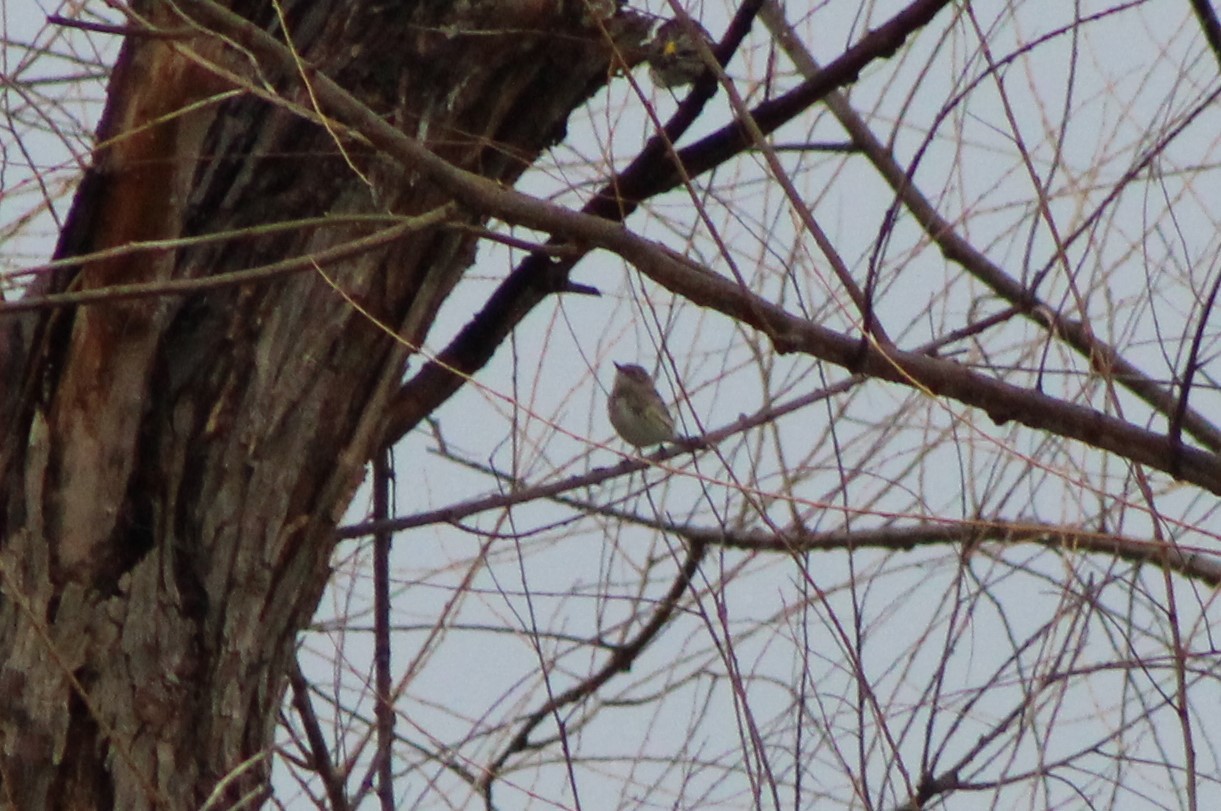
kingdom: Animalia
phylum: Chordata
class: Aves
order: Passeriformes
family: Parulidae
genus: Setophaga
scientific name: Setophaga coronata
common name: Myrtle warbler
